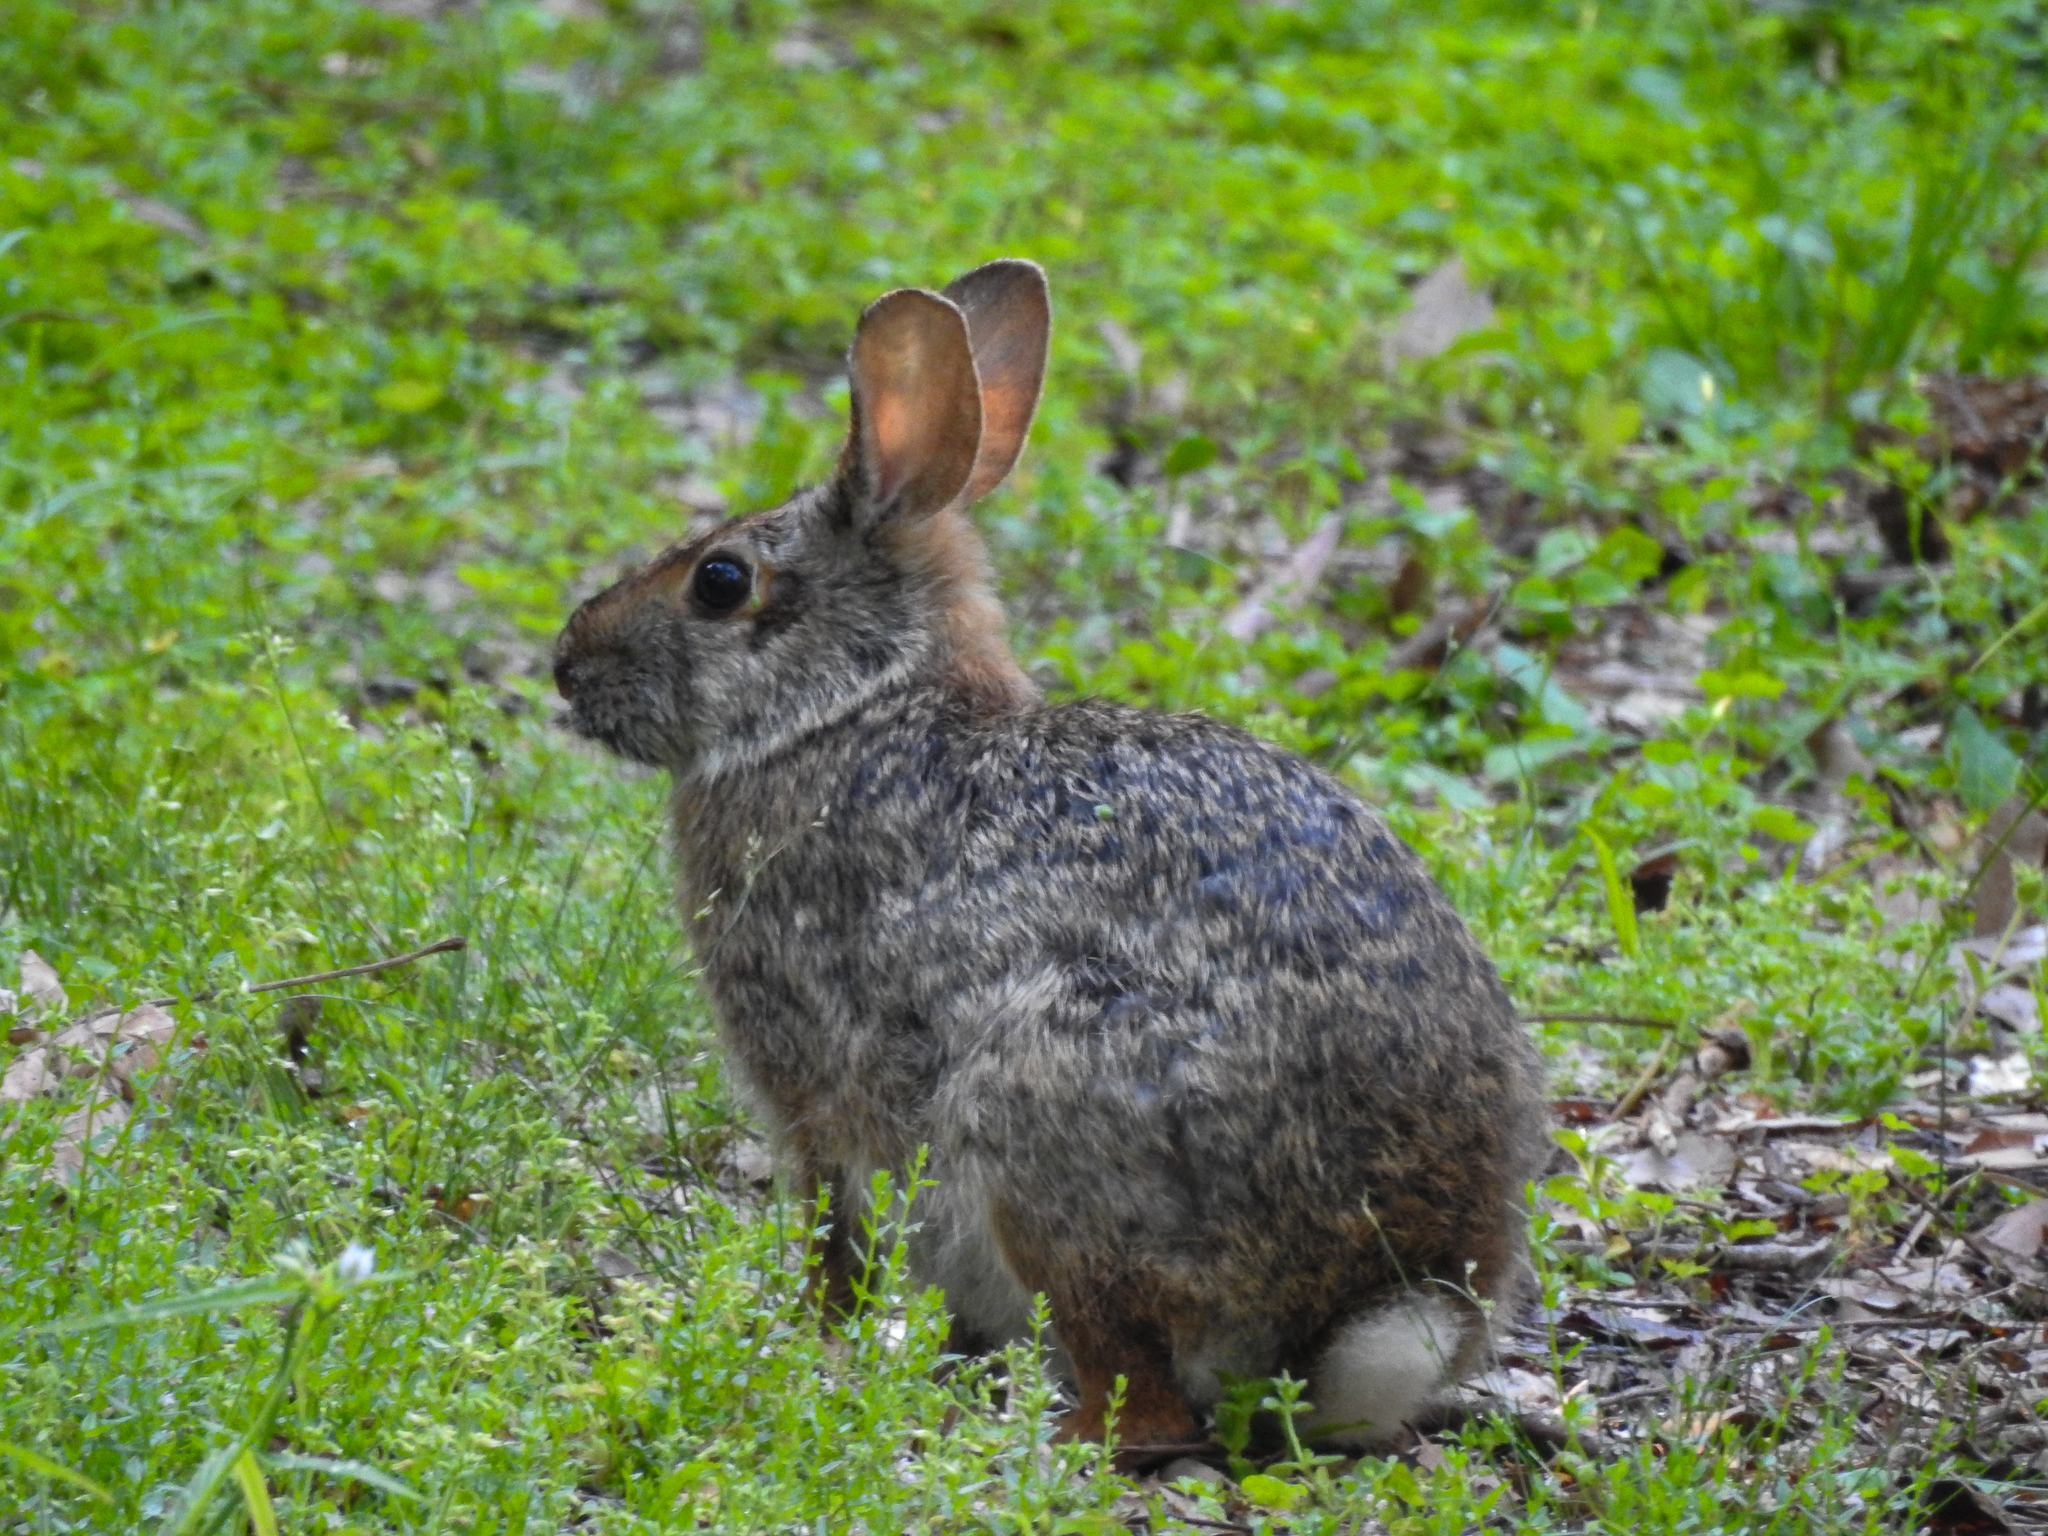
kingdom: Animalia
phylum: Chordata
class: Mammalia
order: Lagomorpha
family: Leporidae
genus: Sylvilagus
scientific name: Sylvilagus aquaticus
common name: Swamp rabbit
